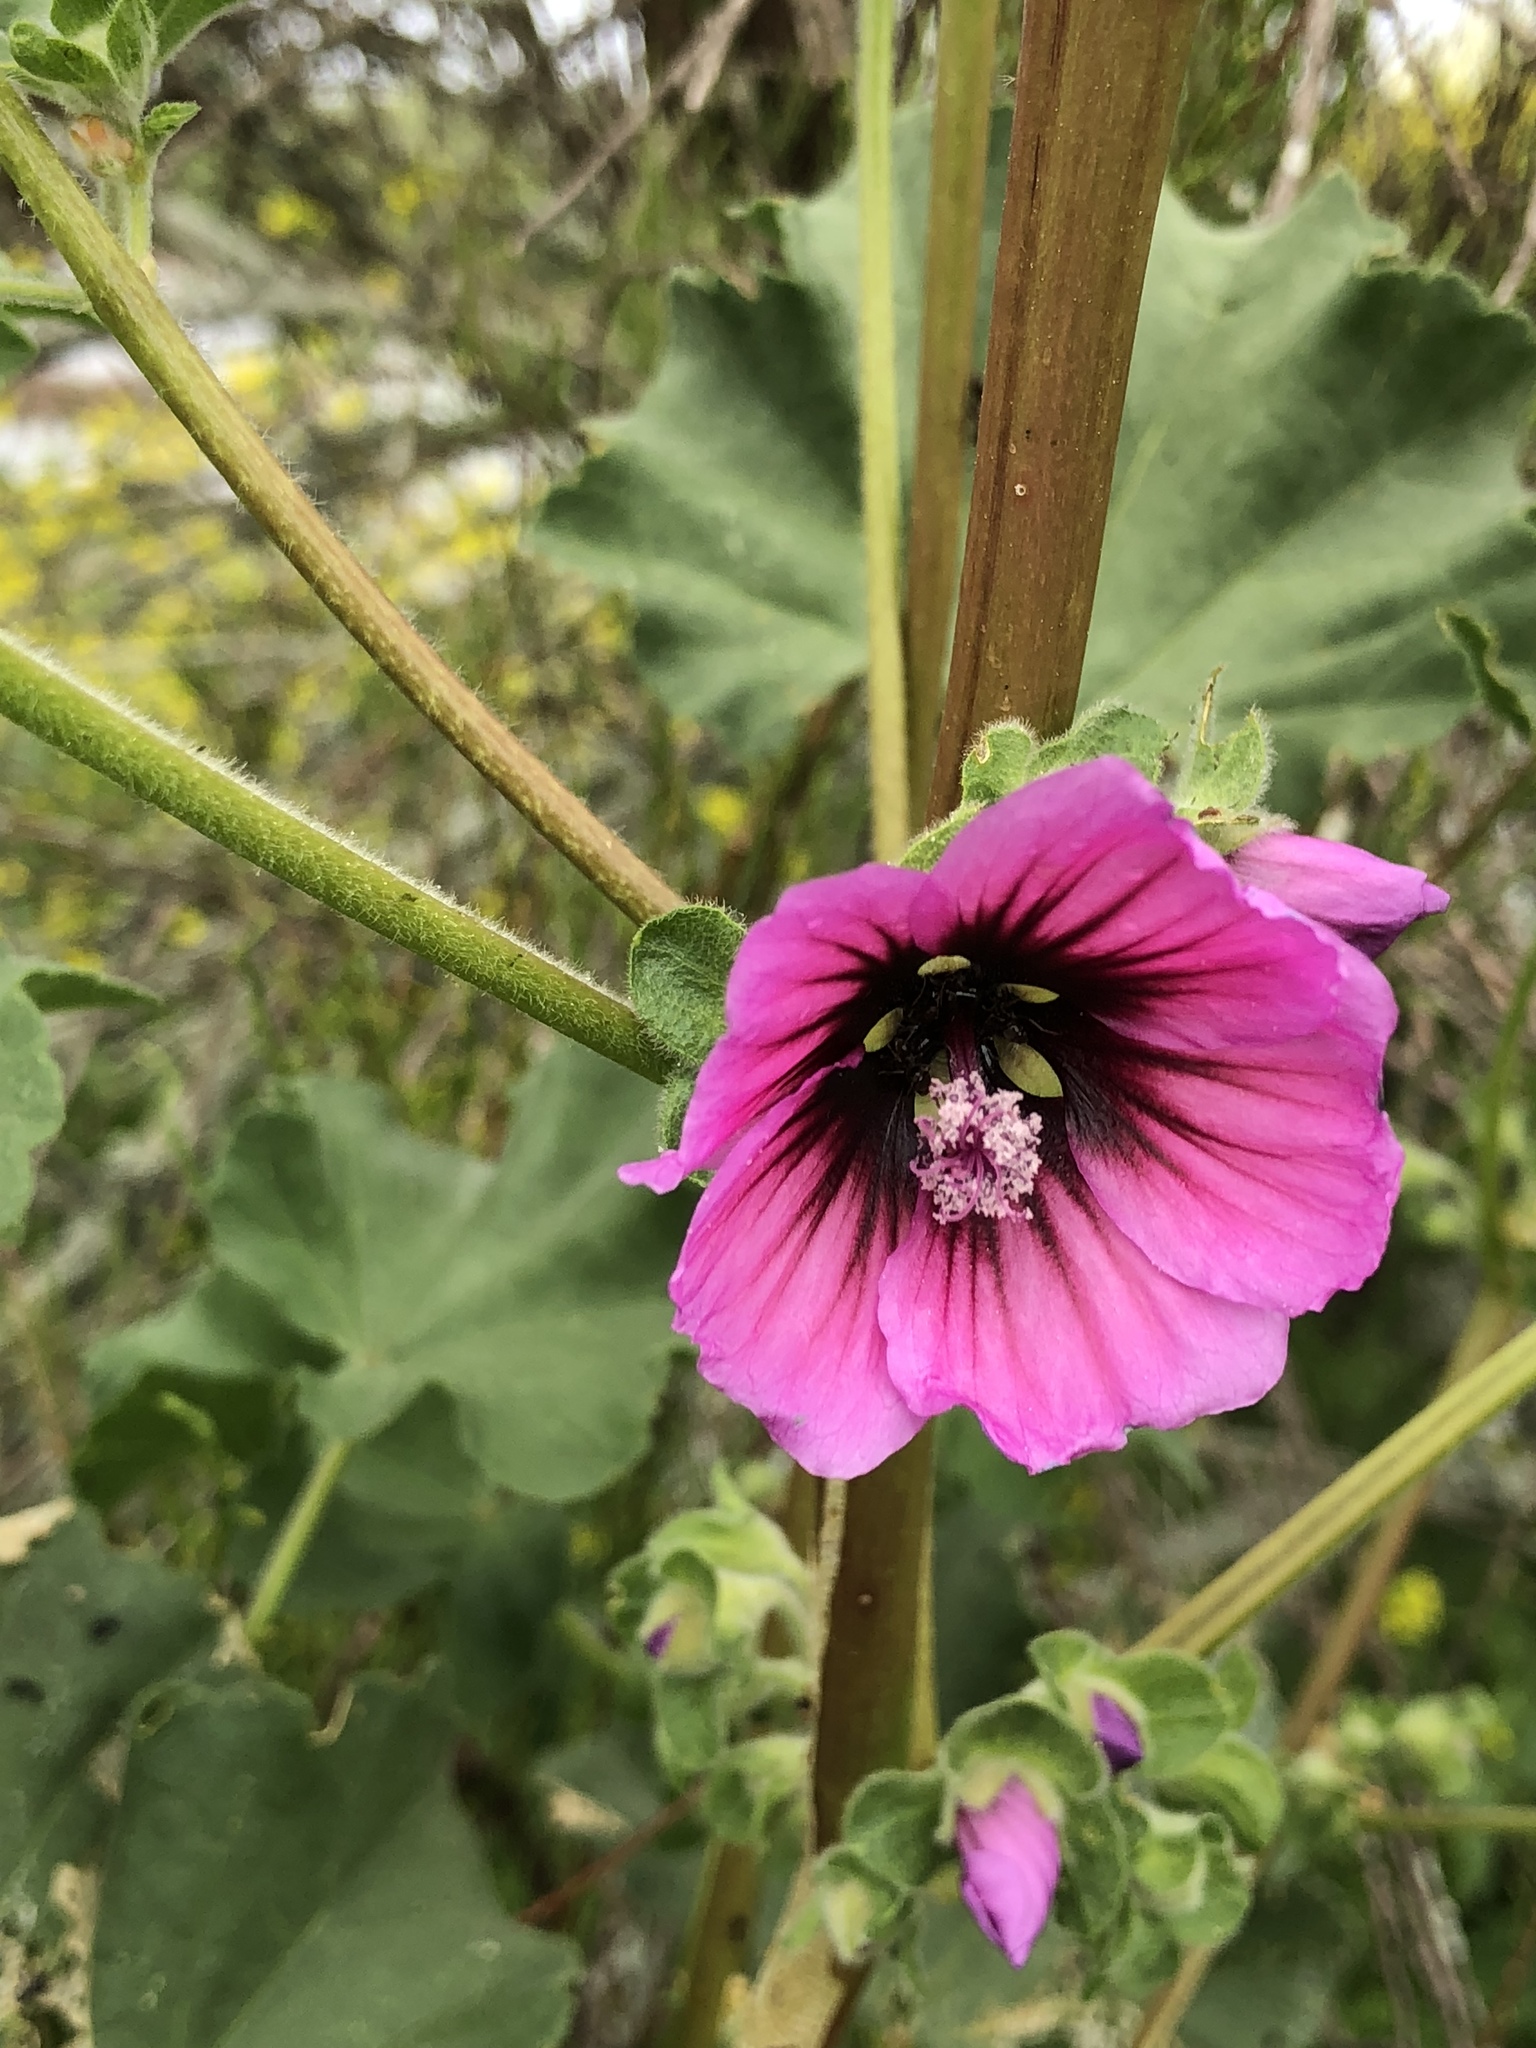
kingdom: Plantae
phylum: Tracheophyta
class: Magnoliopsida
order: Malvales
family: Malvaceae
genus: Malva
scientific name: Malva arborea
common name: Tree mallow
